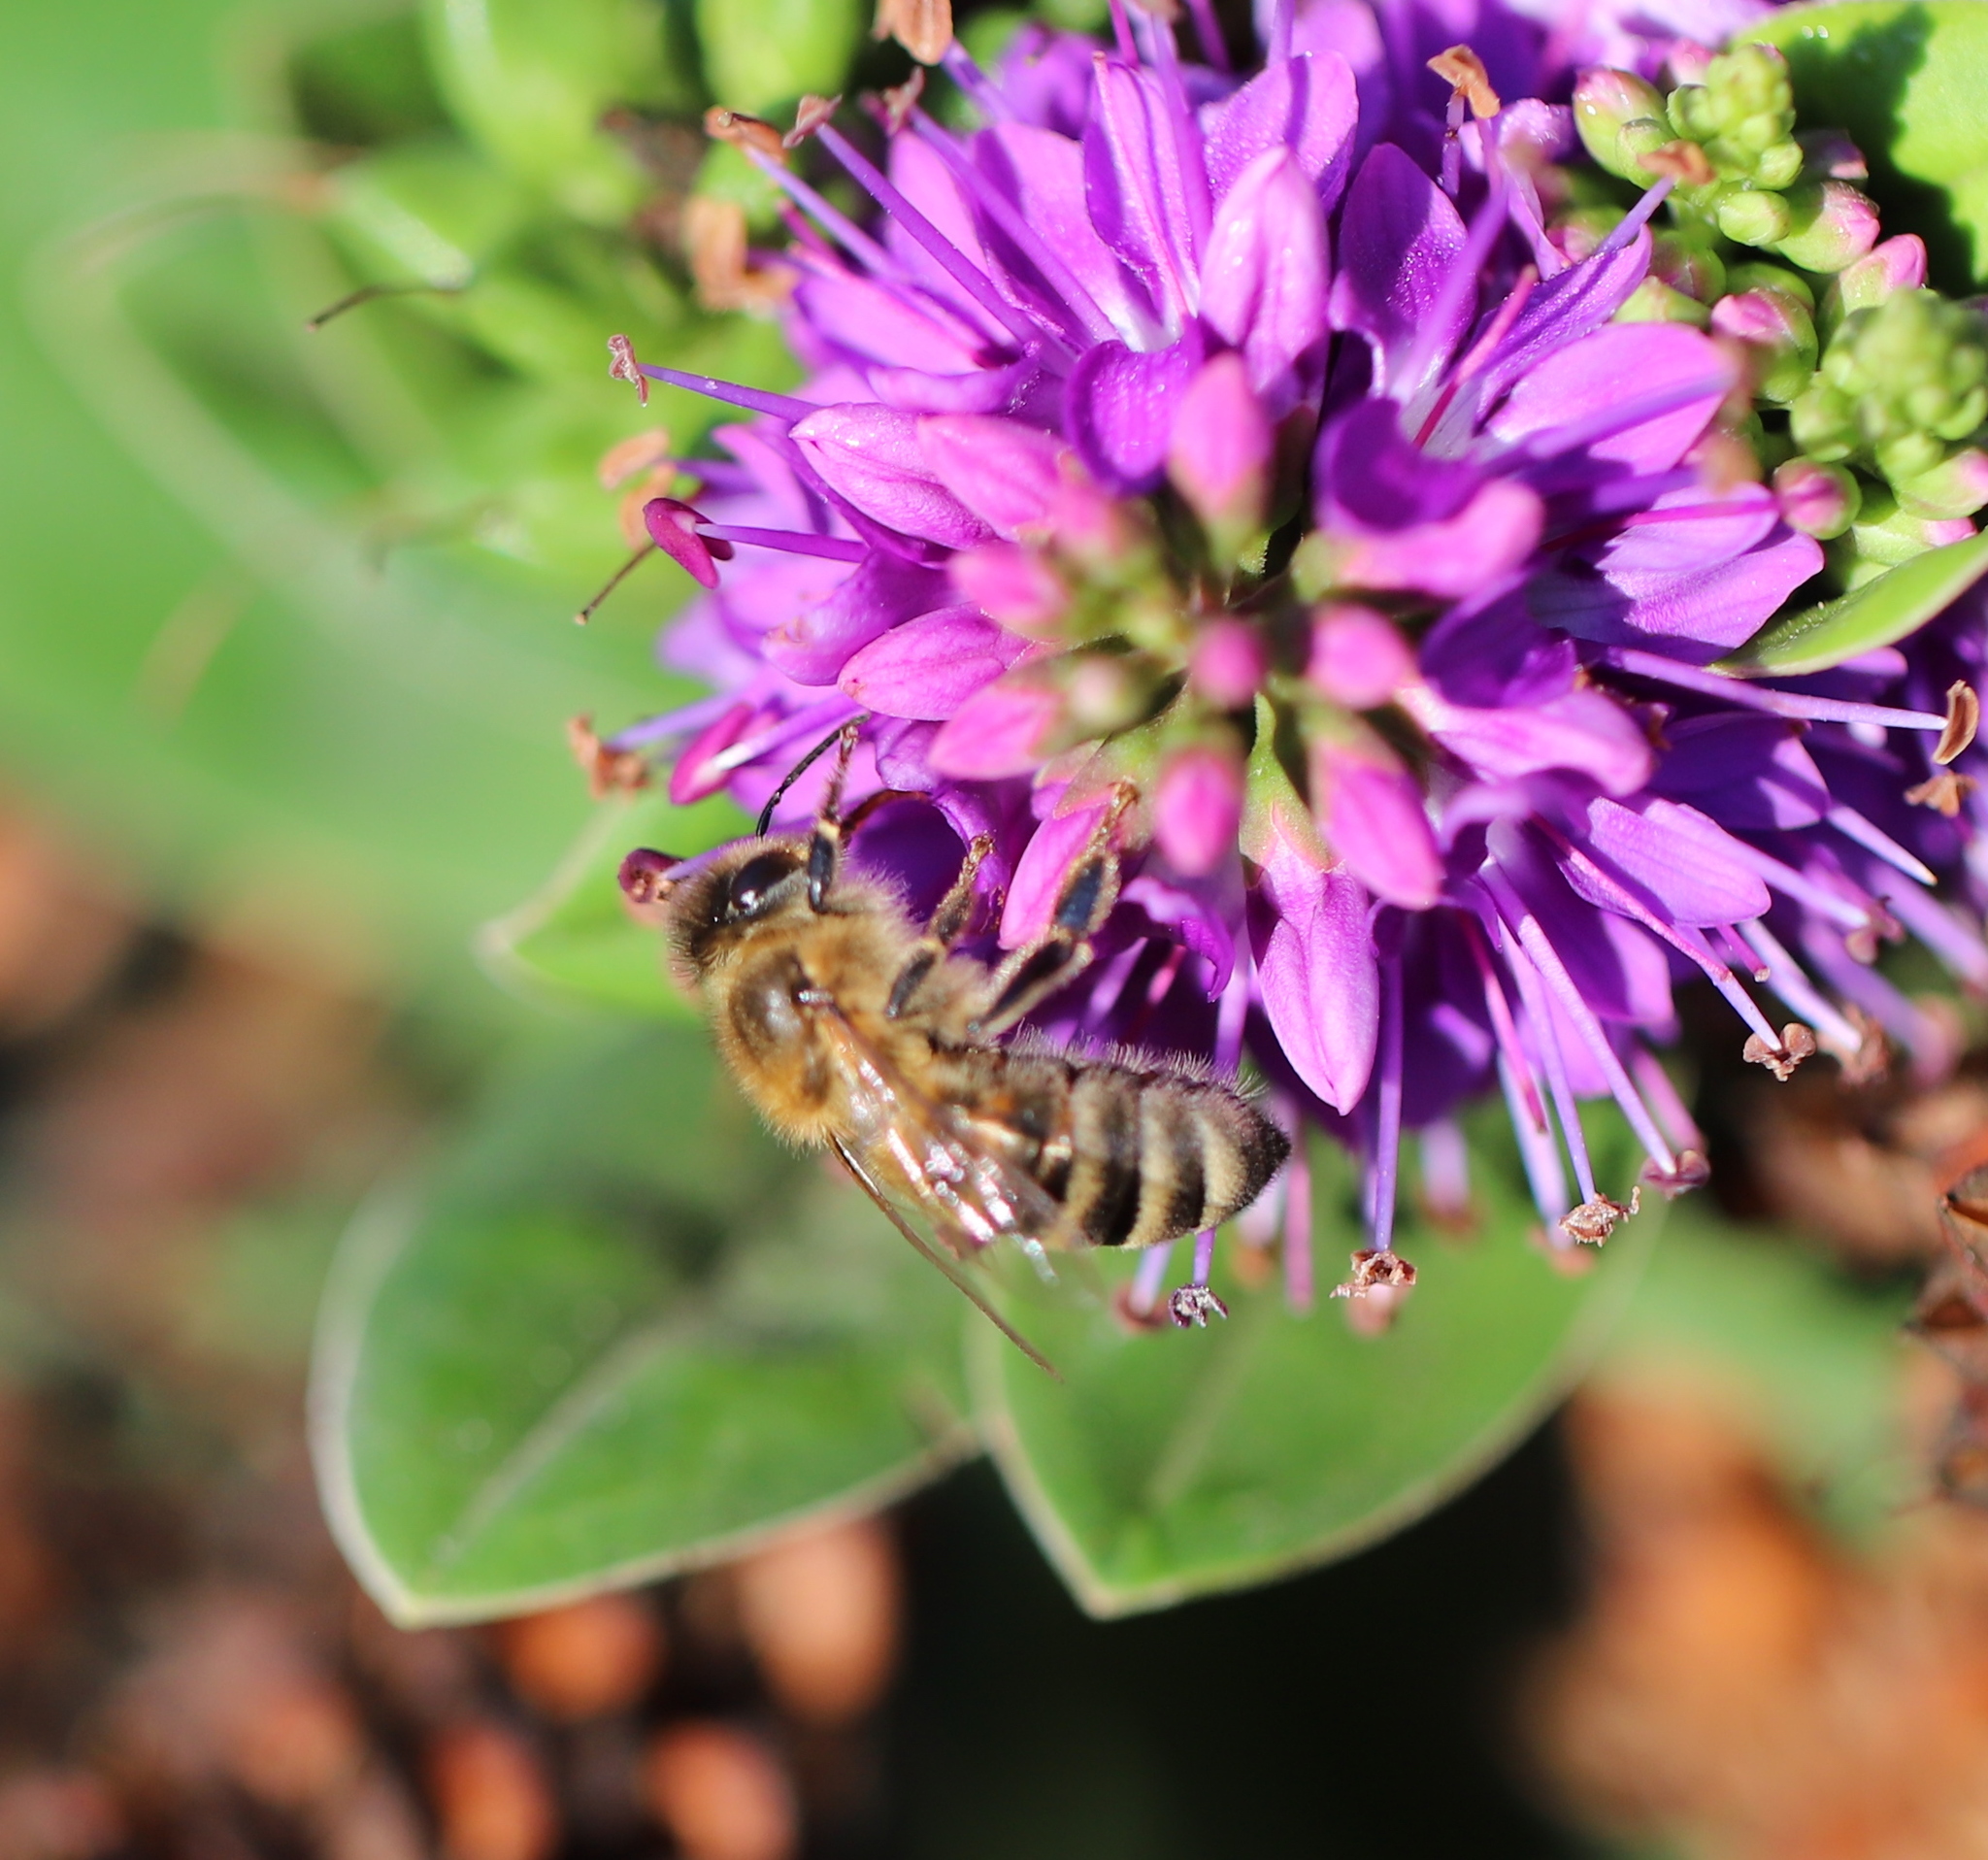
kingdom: Animalia
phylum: Arthropoda
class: Insecta
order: Hymenoptera
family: Apidae
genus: Apis
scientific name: Apis mellifera
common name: Honey bee
